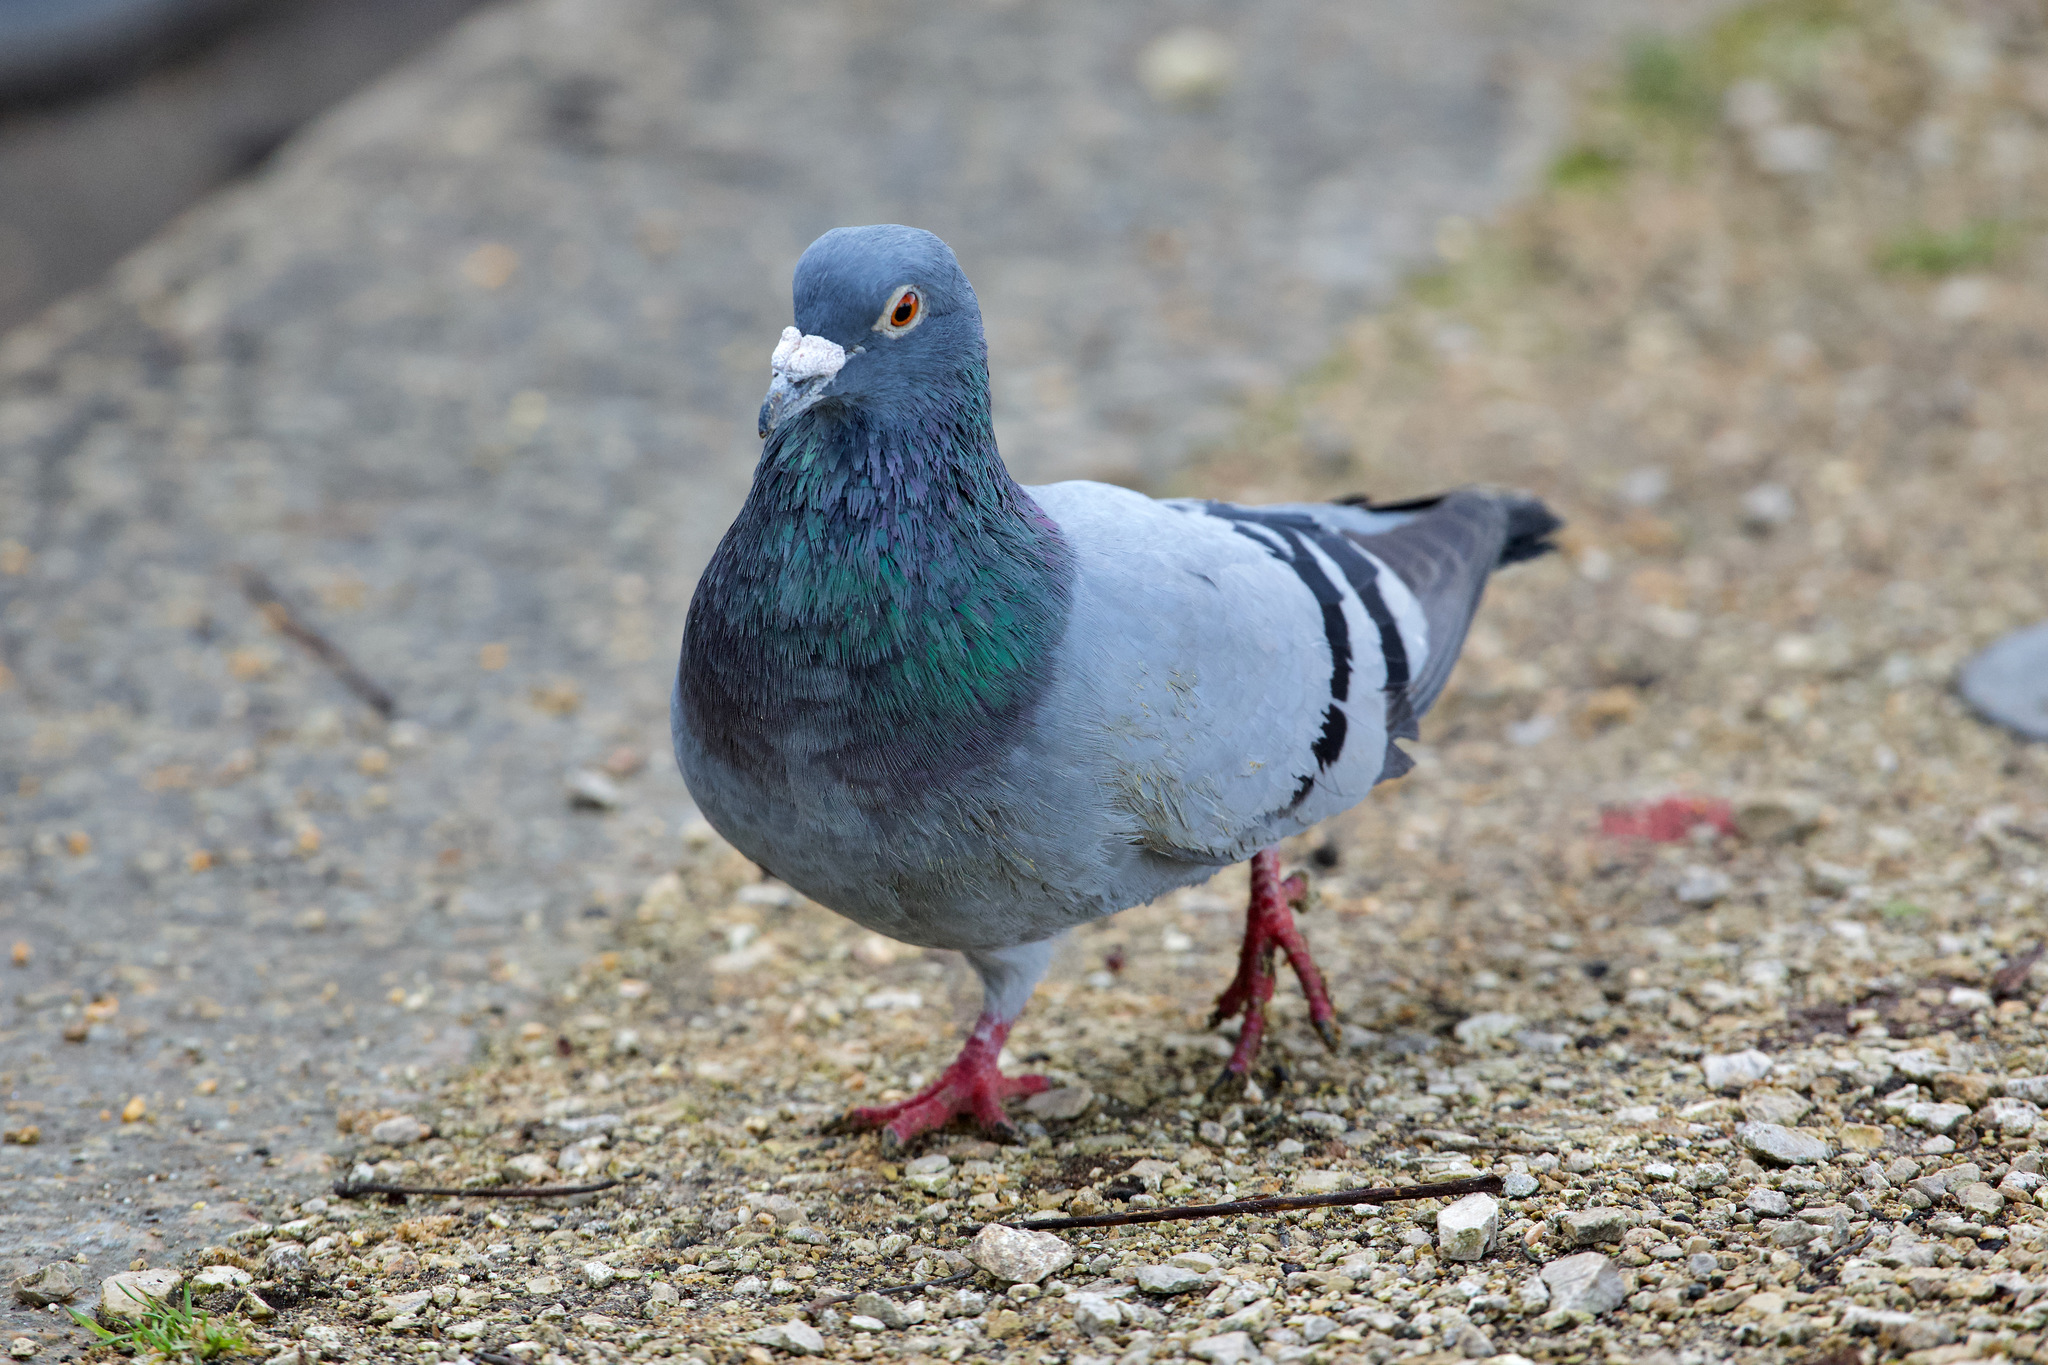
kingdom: Animalia
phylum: Chordata
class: Aves
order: Columbiformes
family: Columbidae
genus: Columba
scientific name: Columba livia
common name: Rock pigeon
